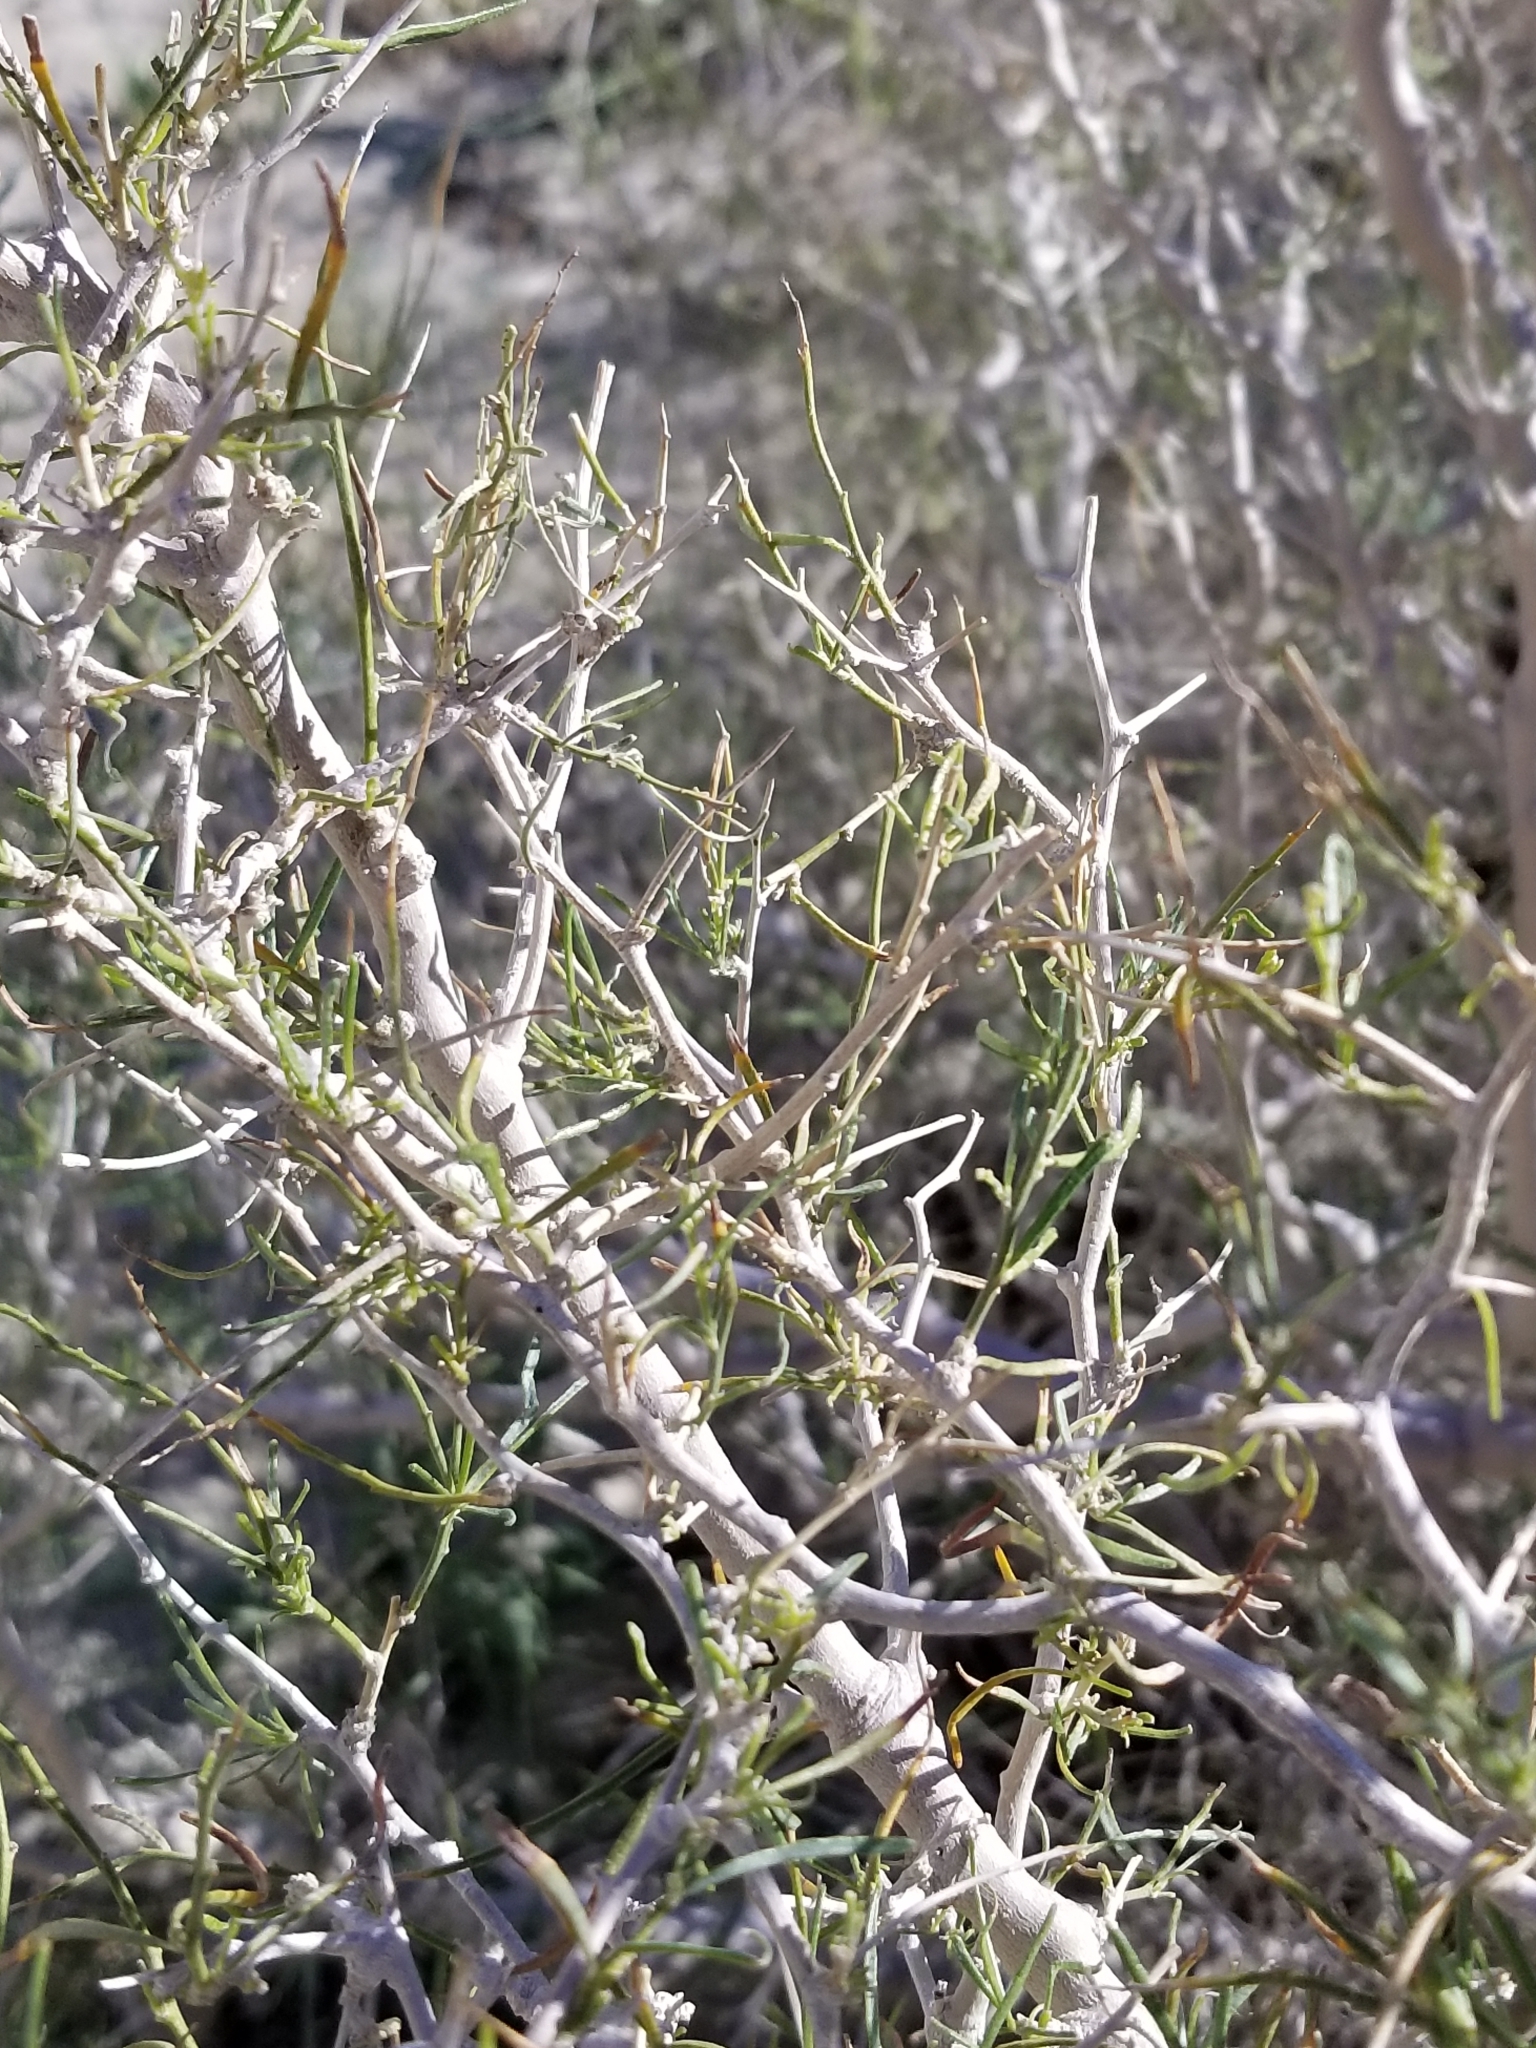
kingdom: Plantae
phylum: Tracheophyta
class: Magnoliopsida
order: Fabales
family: Fabaceae
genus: Psorothamnus
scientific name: Psorothamnus schottii
